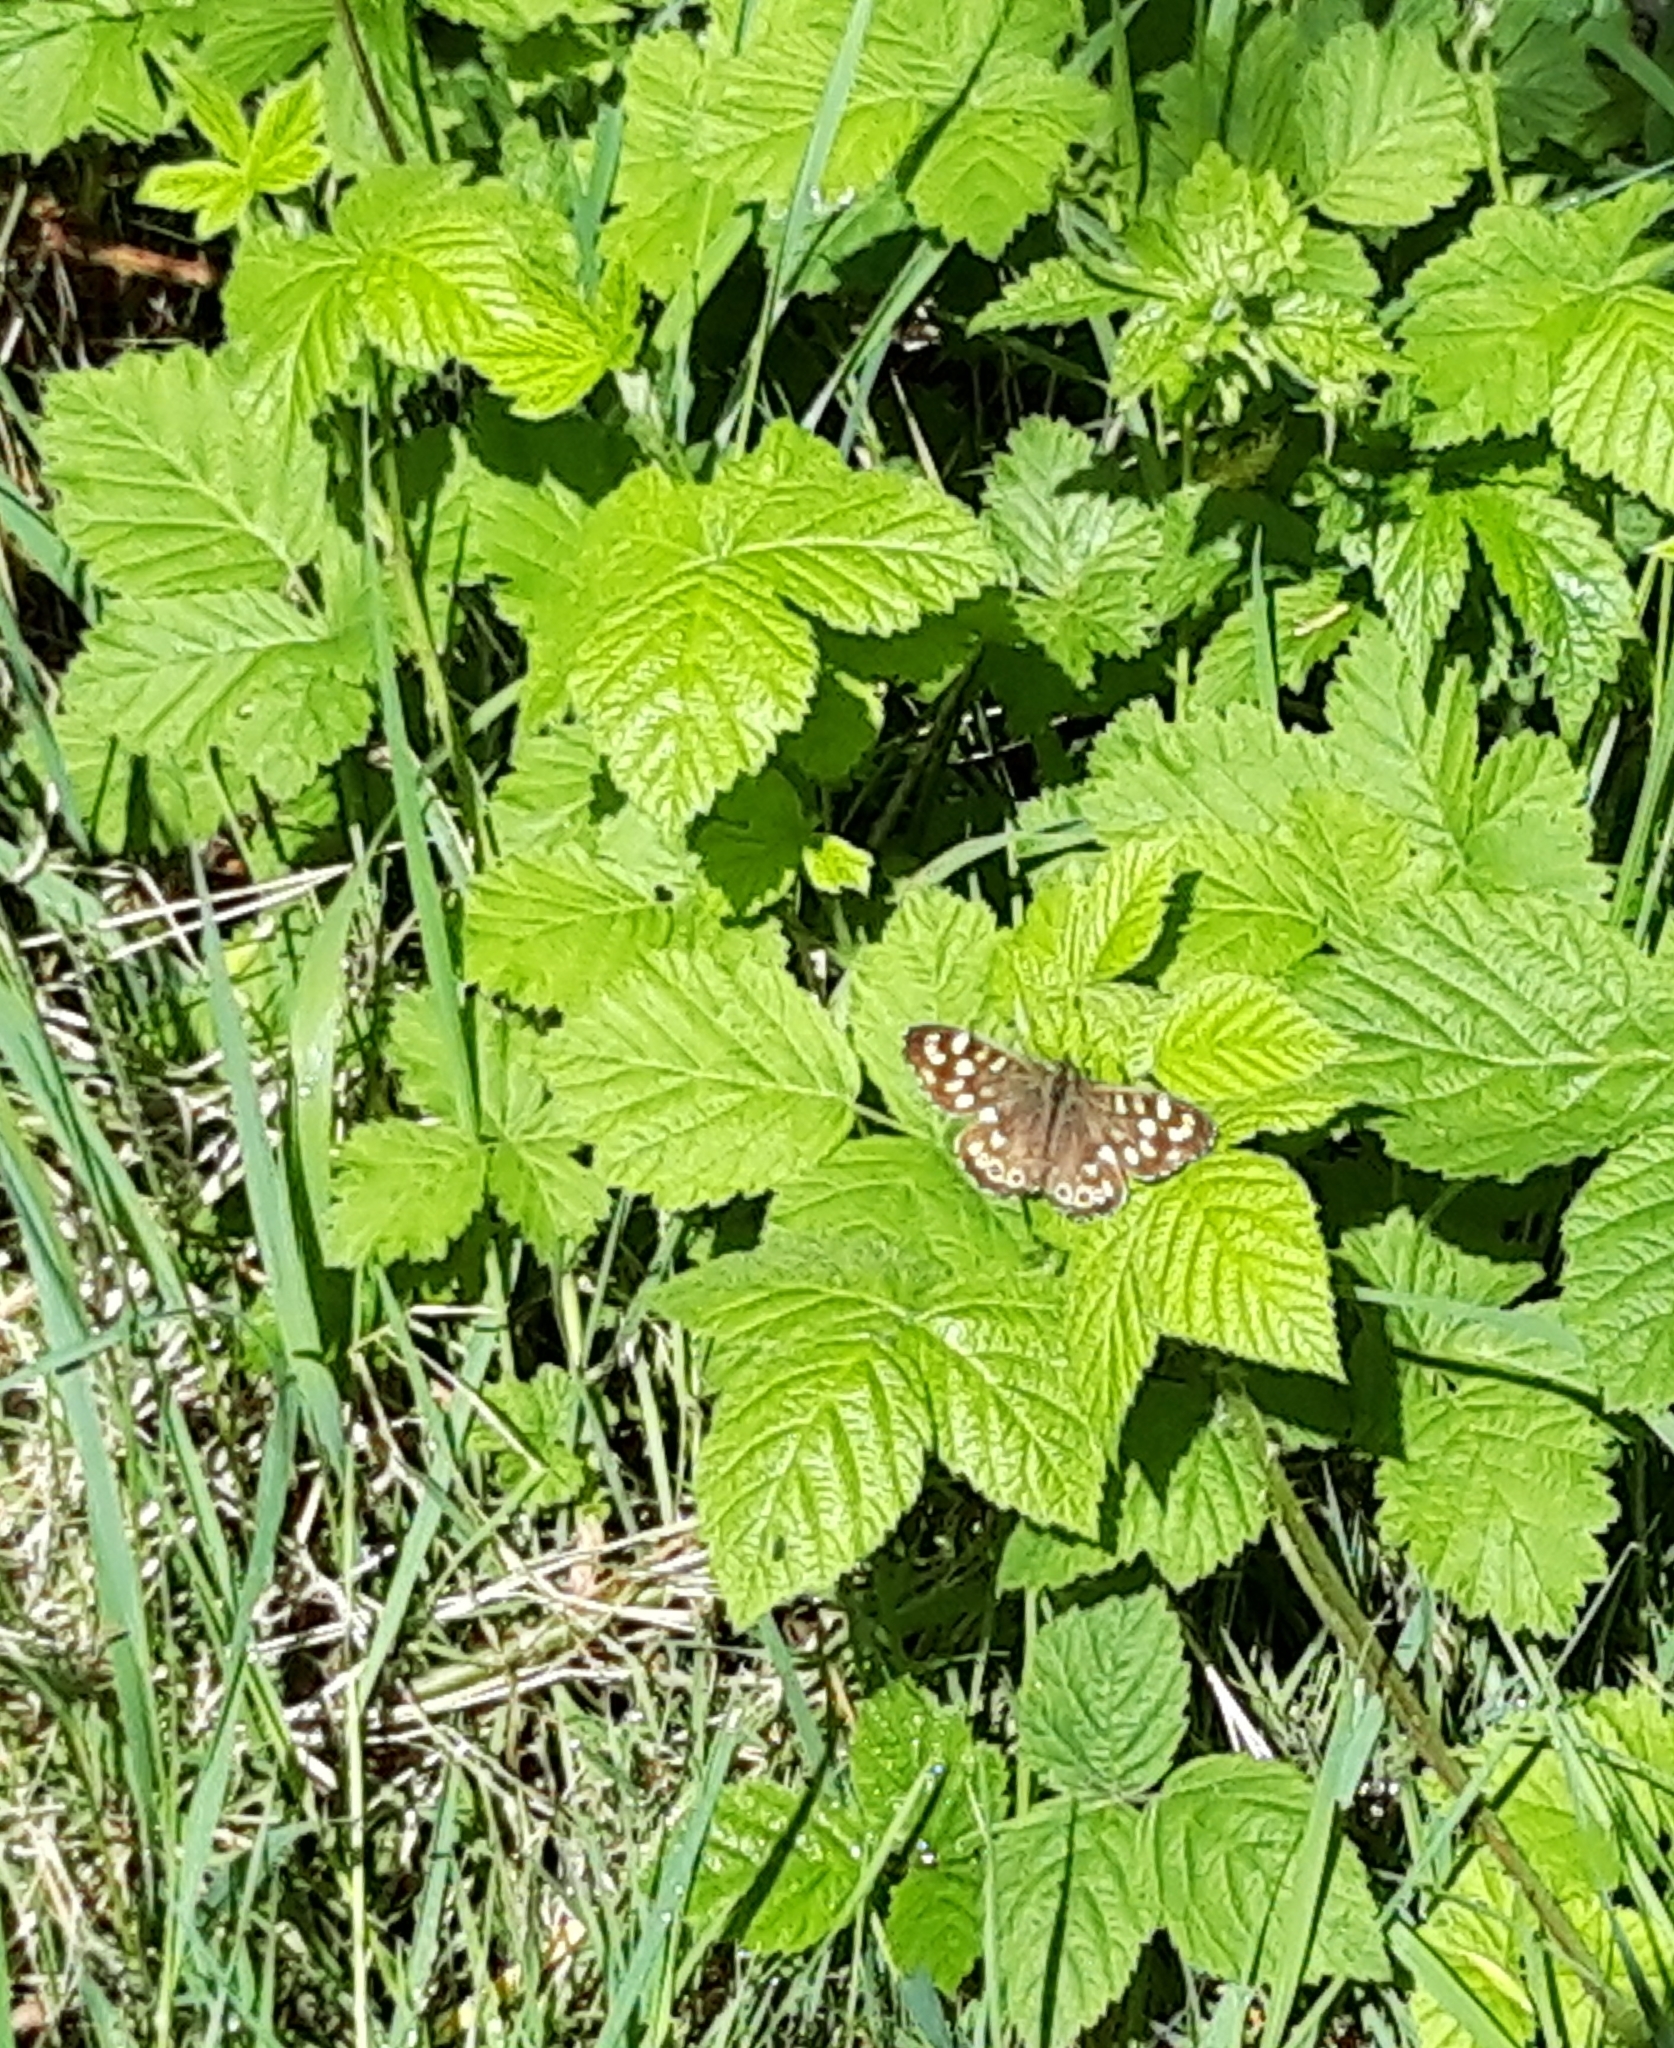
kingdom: Animalia
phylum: Arthropoda
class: Insecta
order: Lepidoptera
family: Nymphalidae
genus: Pararge
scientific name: Pararge aegeria
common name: Speckled wood
